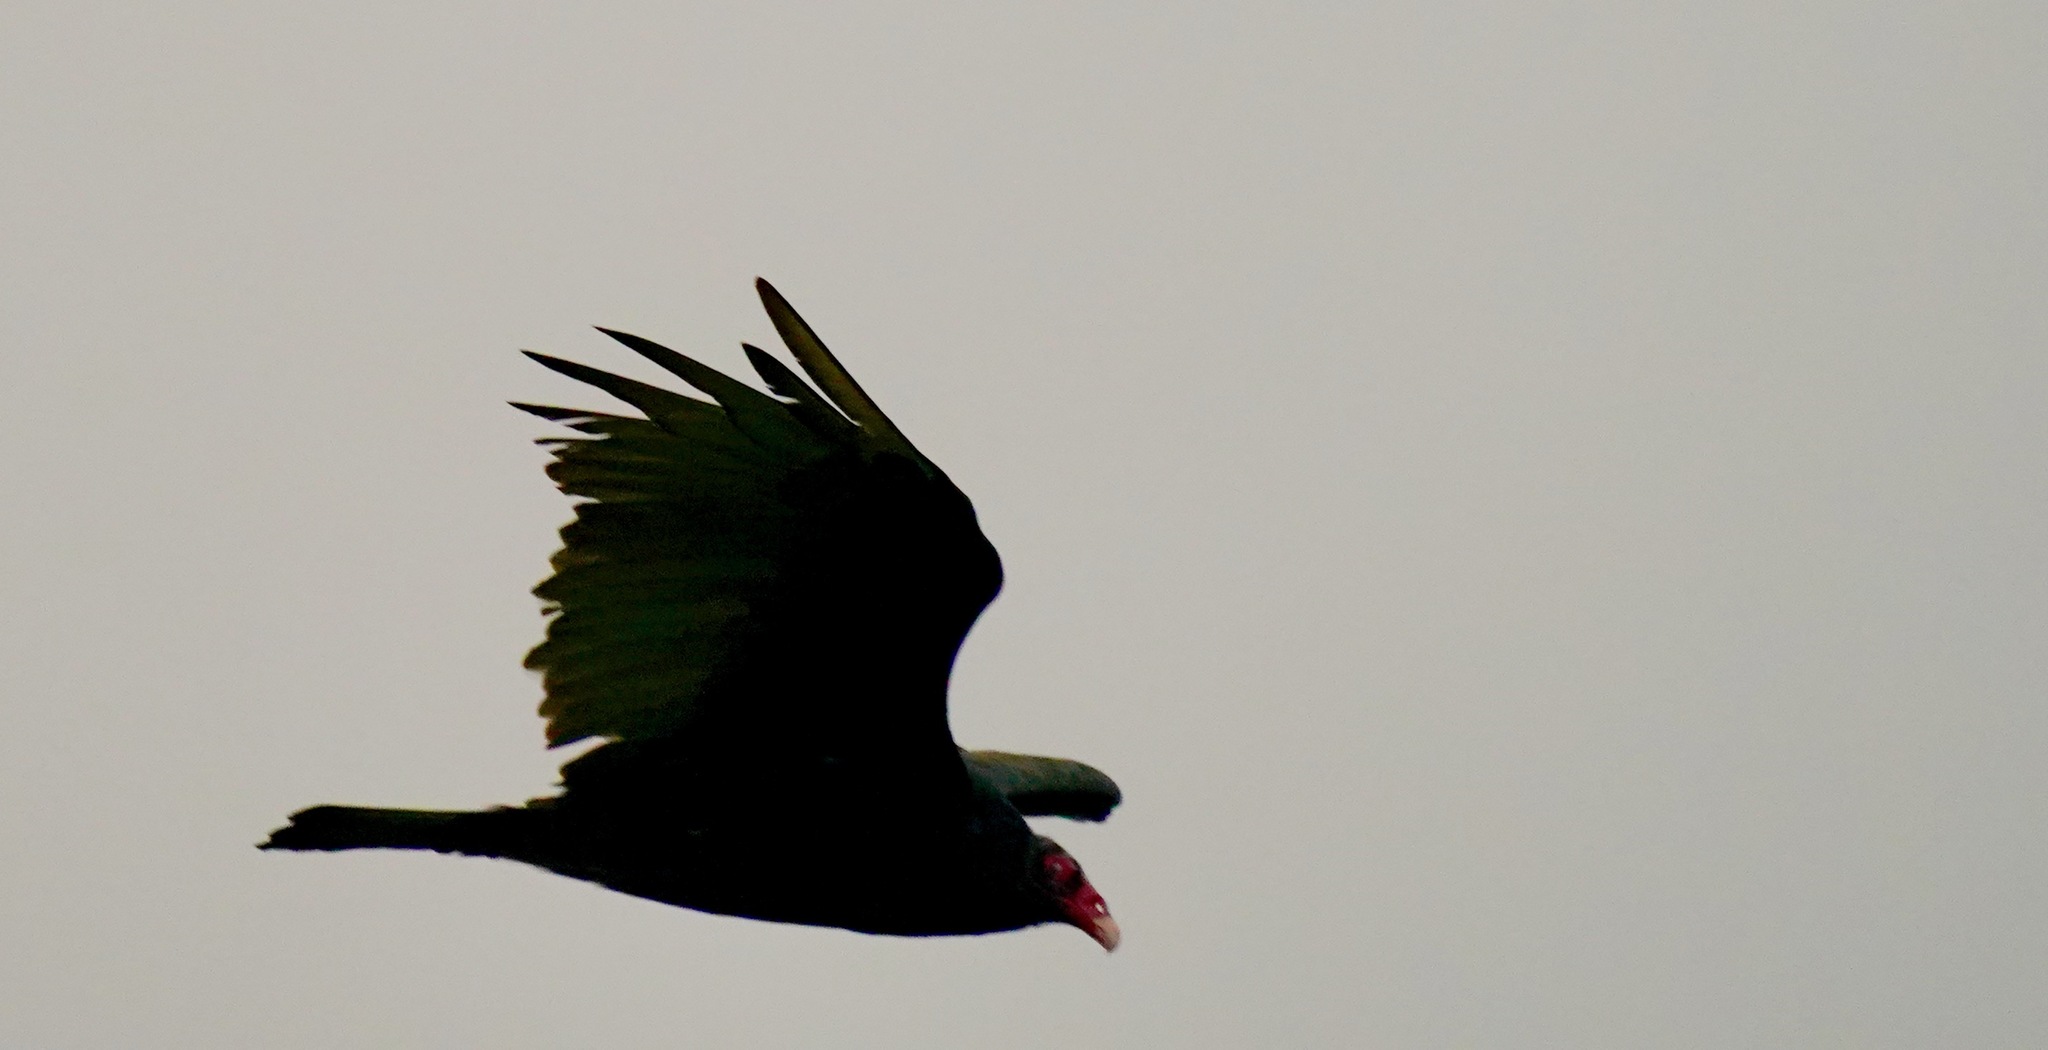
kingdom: Animalia
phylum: Chordata
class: Aves
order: Accipitriformes
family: Cathartidae
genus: Cathartes
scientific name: Cathartes aura
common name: Turkey vulture
